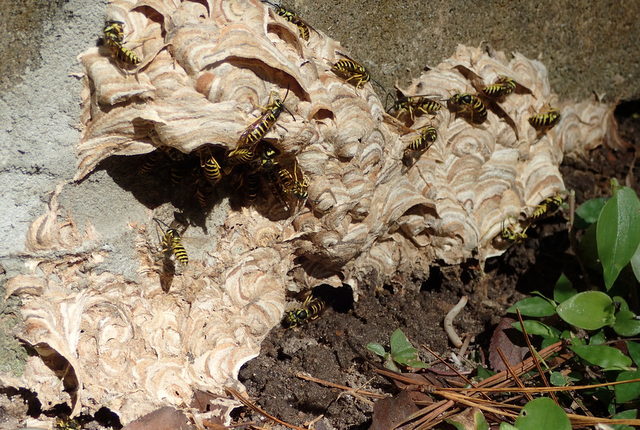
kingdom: Animalia
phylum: Arthropoda
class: Insecta
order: Hymenoptera
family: Vespidae
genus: Vespula
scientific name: Vespula maculifrons
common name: Eastern yellowjacket
